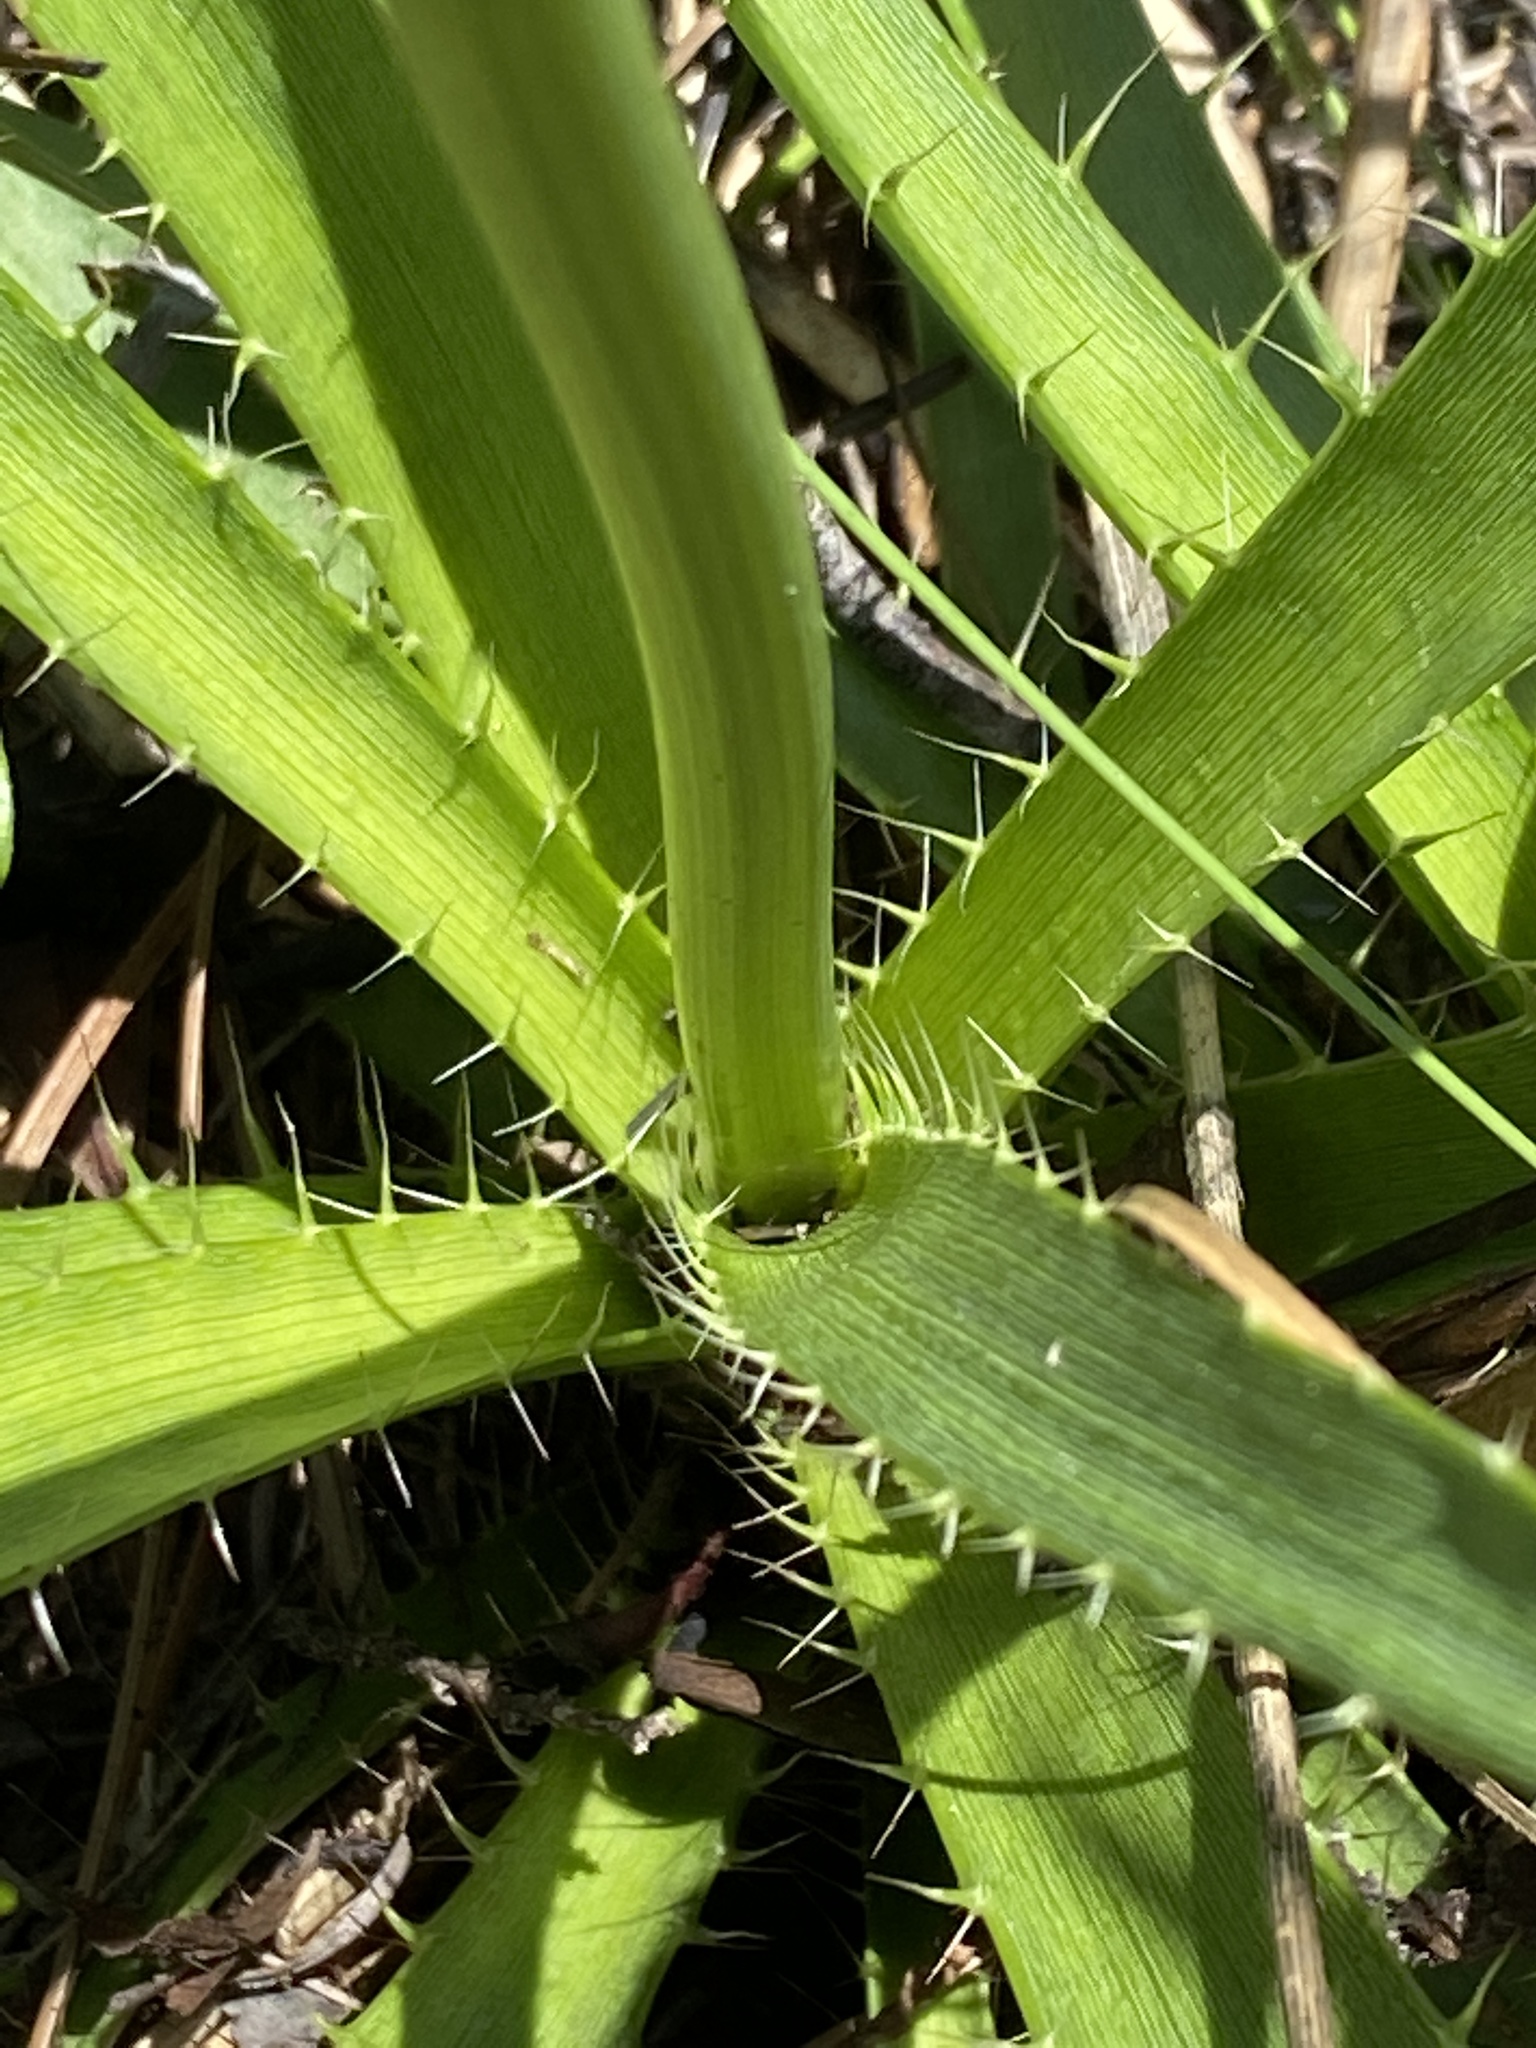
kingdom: Plantae
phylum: Tracheophyta
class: Magnoliopsida
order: Apiales
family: Apiaceae
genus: Eryngium
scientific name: Eryngium yuccifolium
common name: Button eryngo
